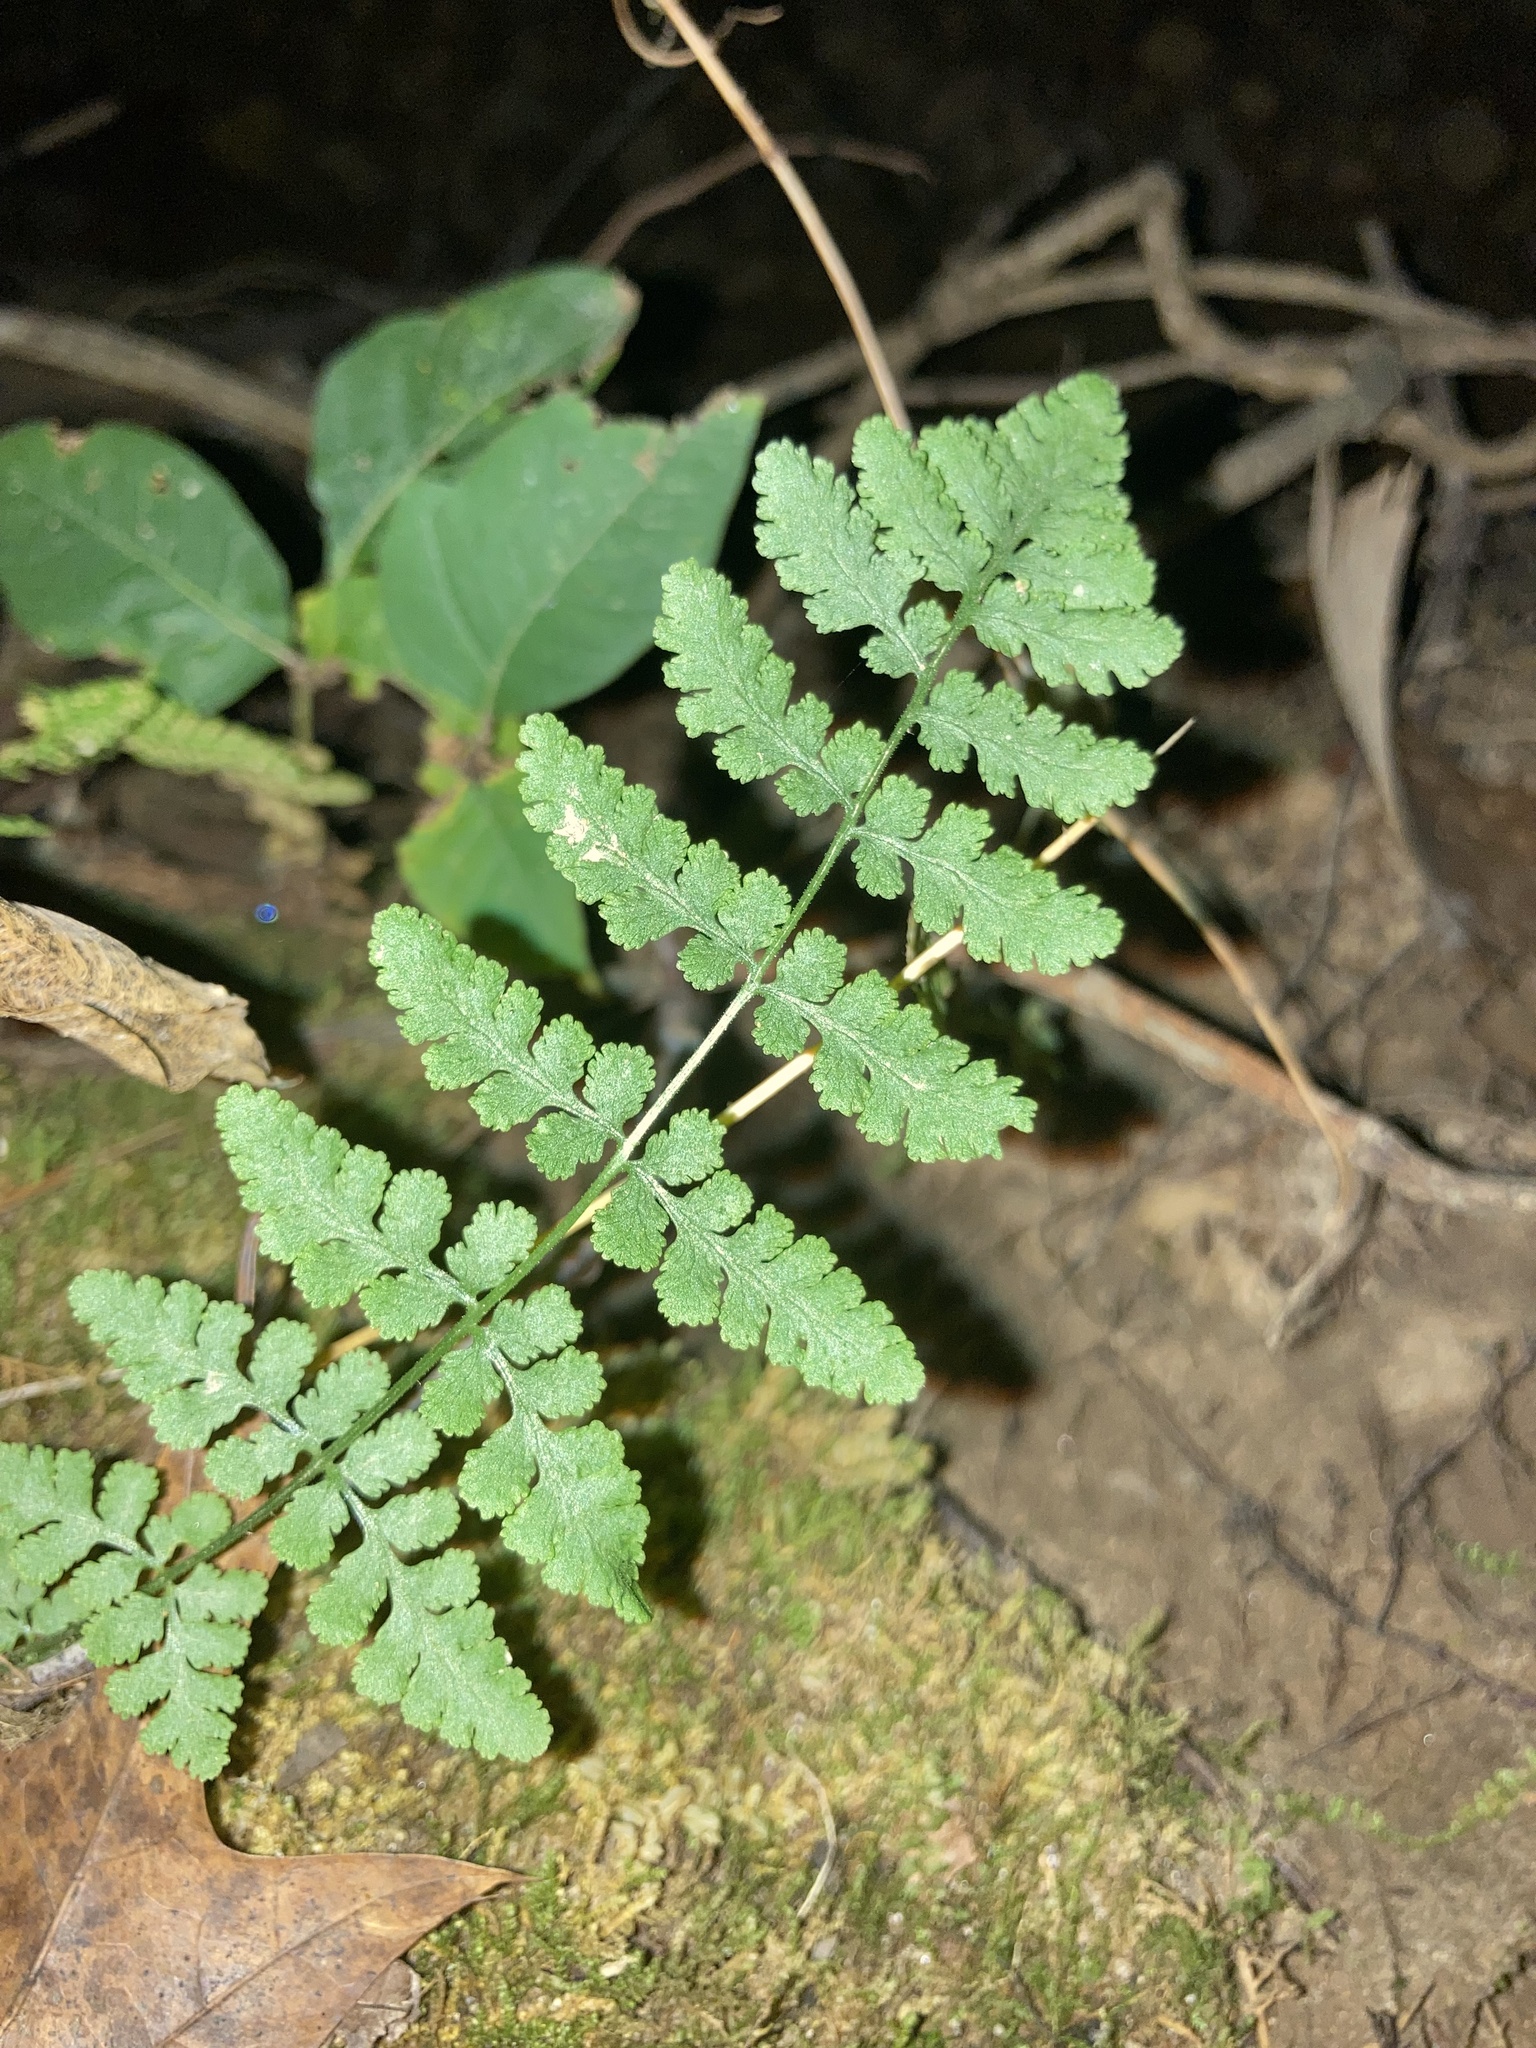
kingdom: Plantae
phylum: Tracheophyta
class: Polypodiopsida
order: Polypodiales
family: Woodsiaceae
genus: Physematium
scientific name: Physematium obtusum
